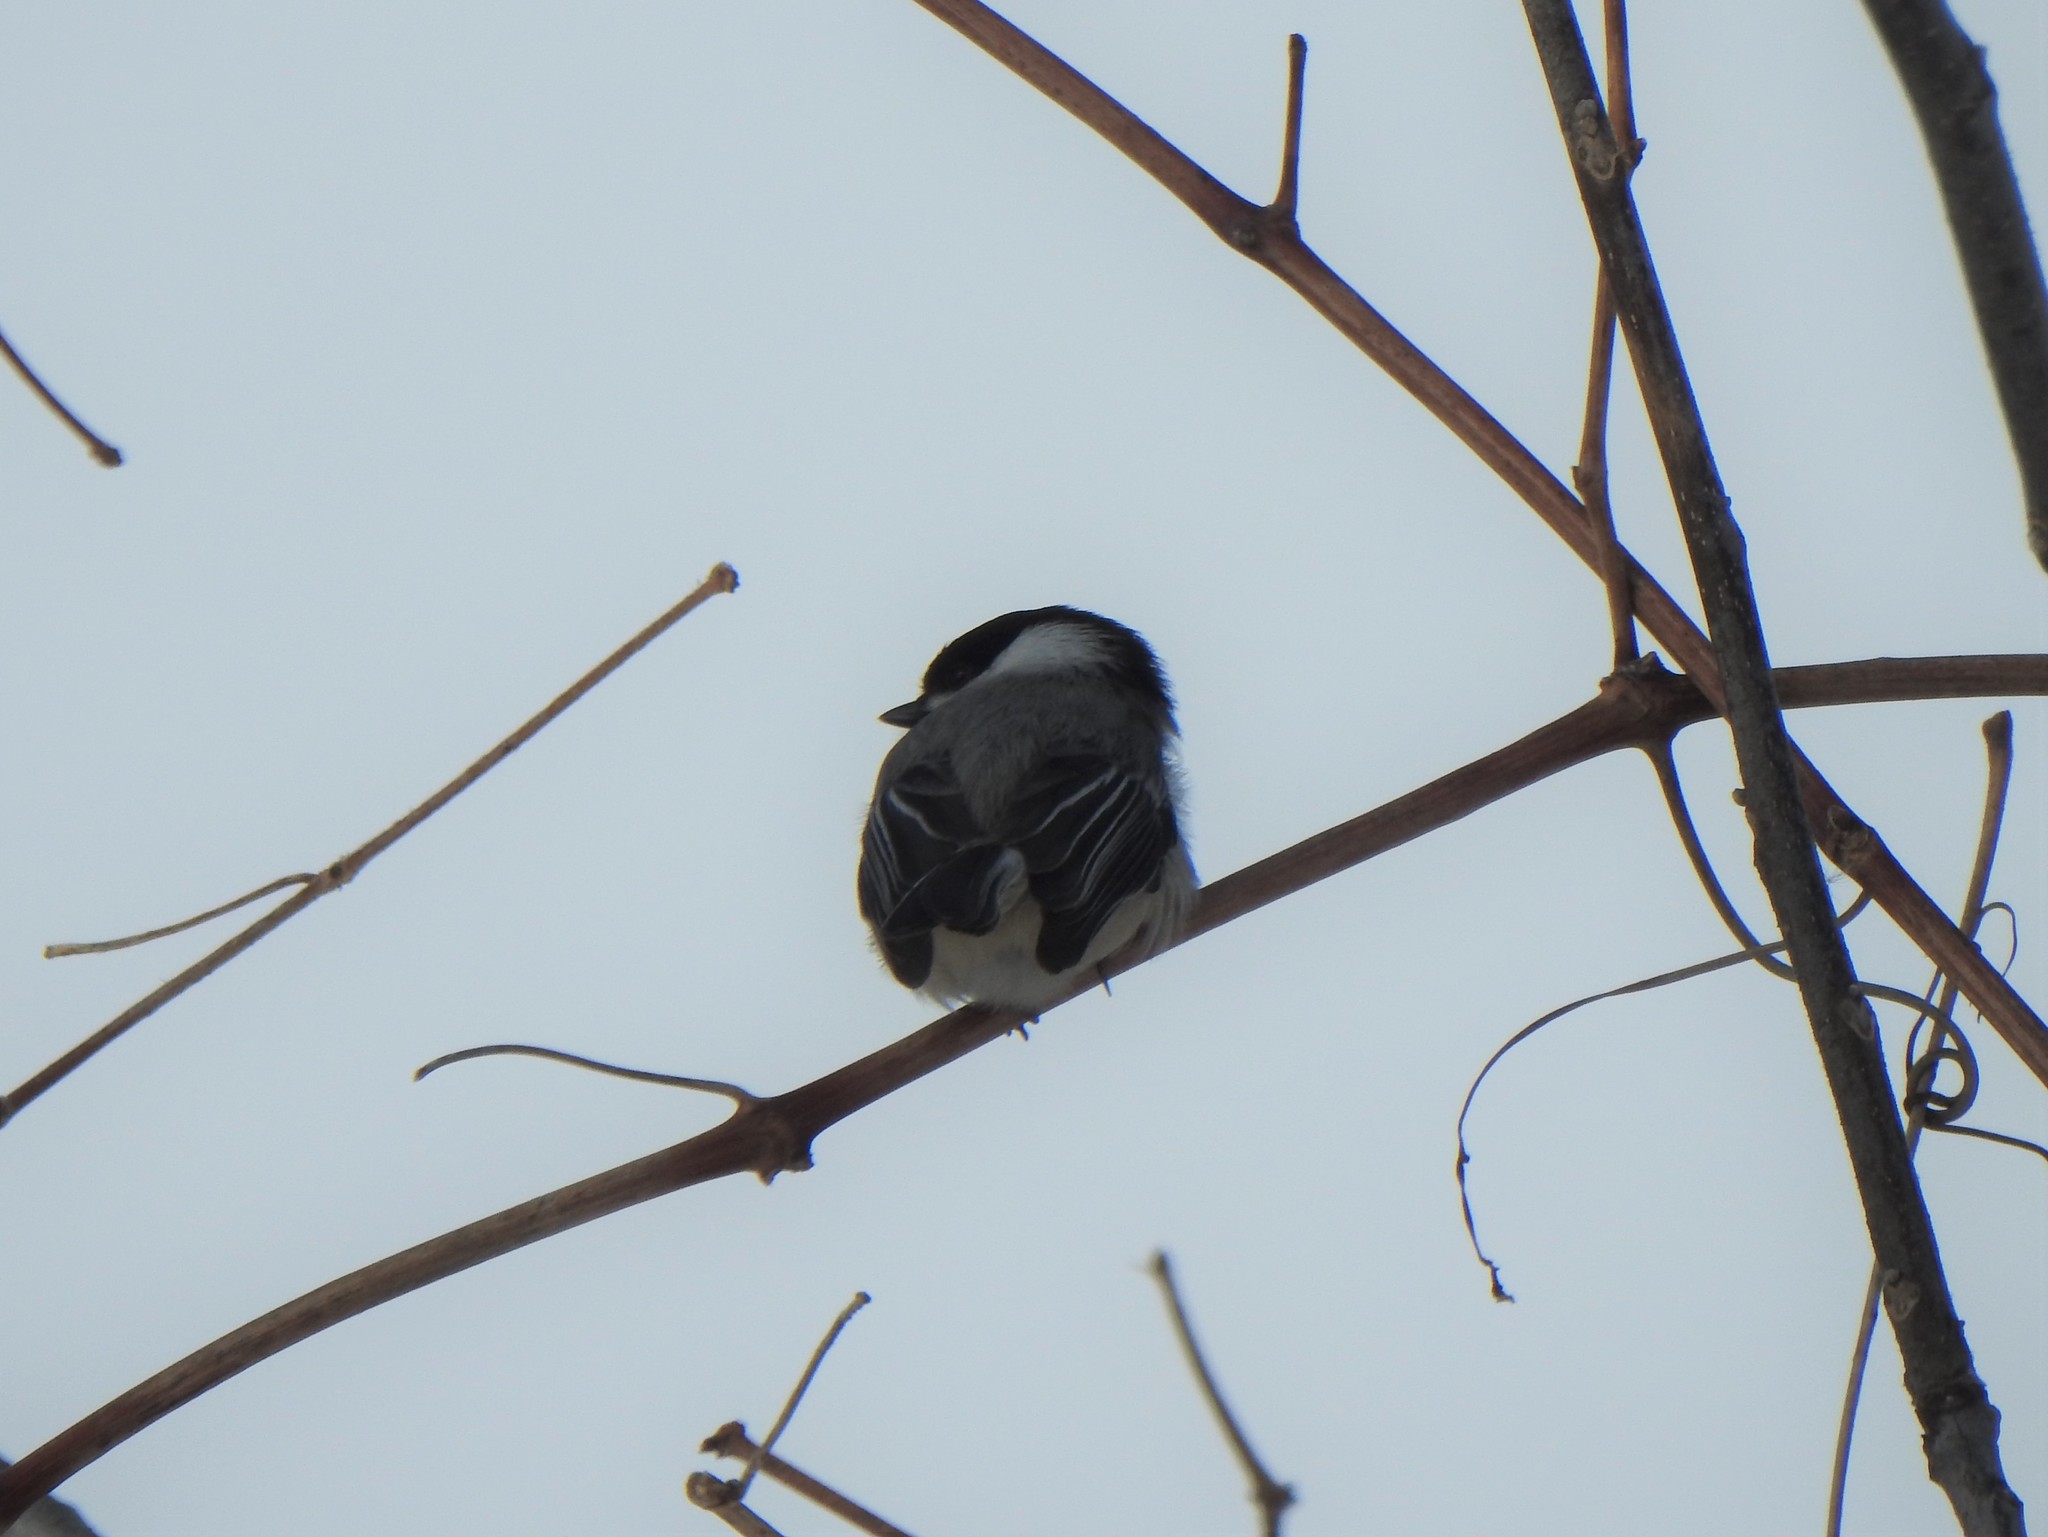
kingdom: Animalia
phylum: Chordata
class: Aves
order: Passeriformes
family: Paridae
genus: Poecile
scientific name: Poecile atricapillus
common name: Black-capped chickadee
